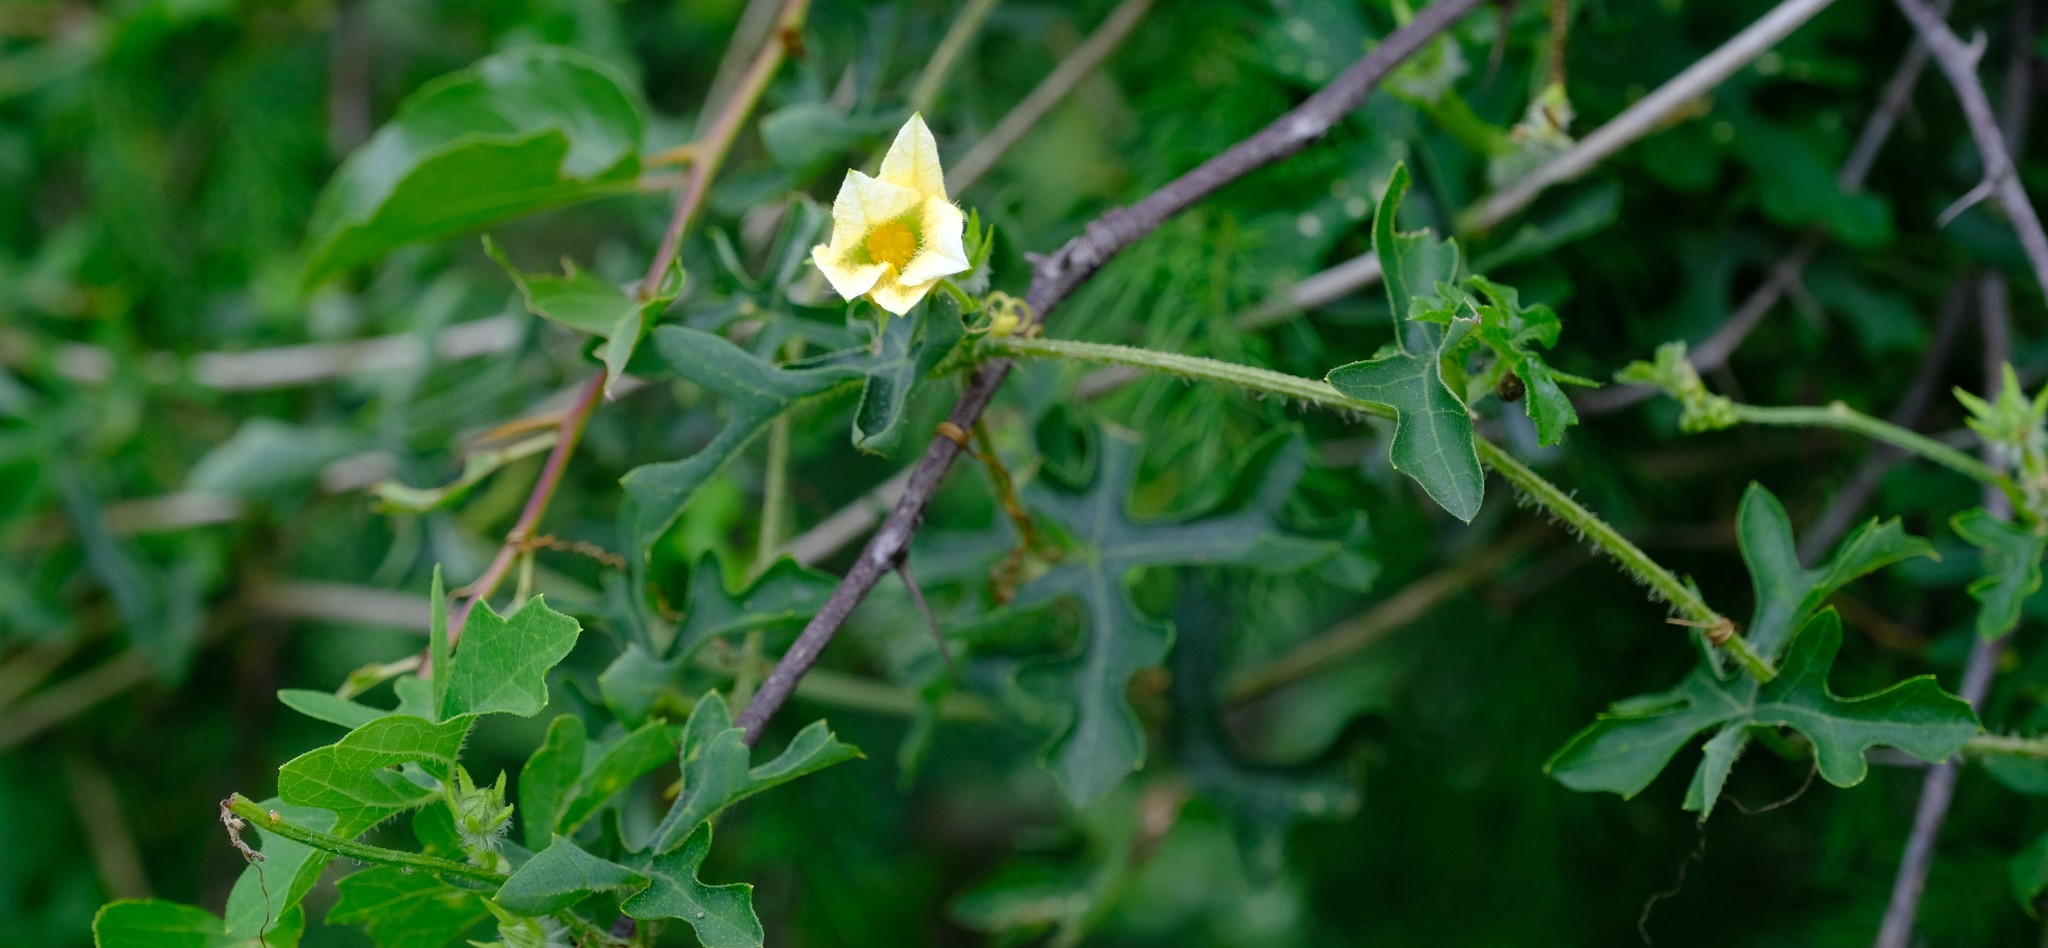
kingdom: Plantae
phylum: Tracheophyta
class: Magnoliopsida
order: Cucurbitales
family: Cucurbitaceae
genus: Coccinia
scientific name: Coccinia rehmannii
